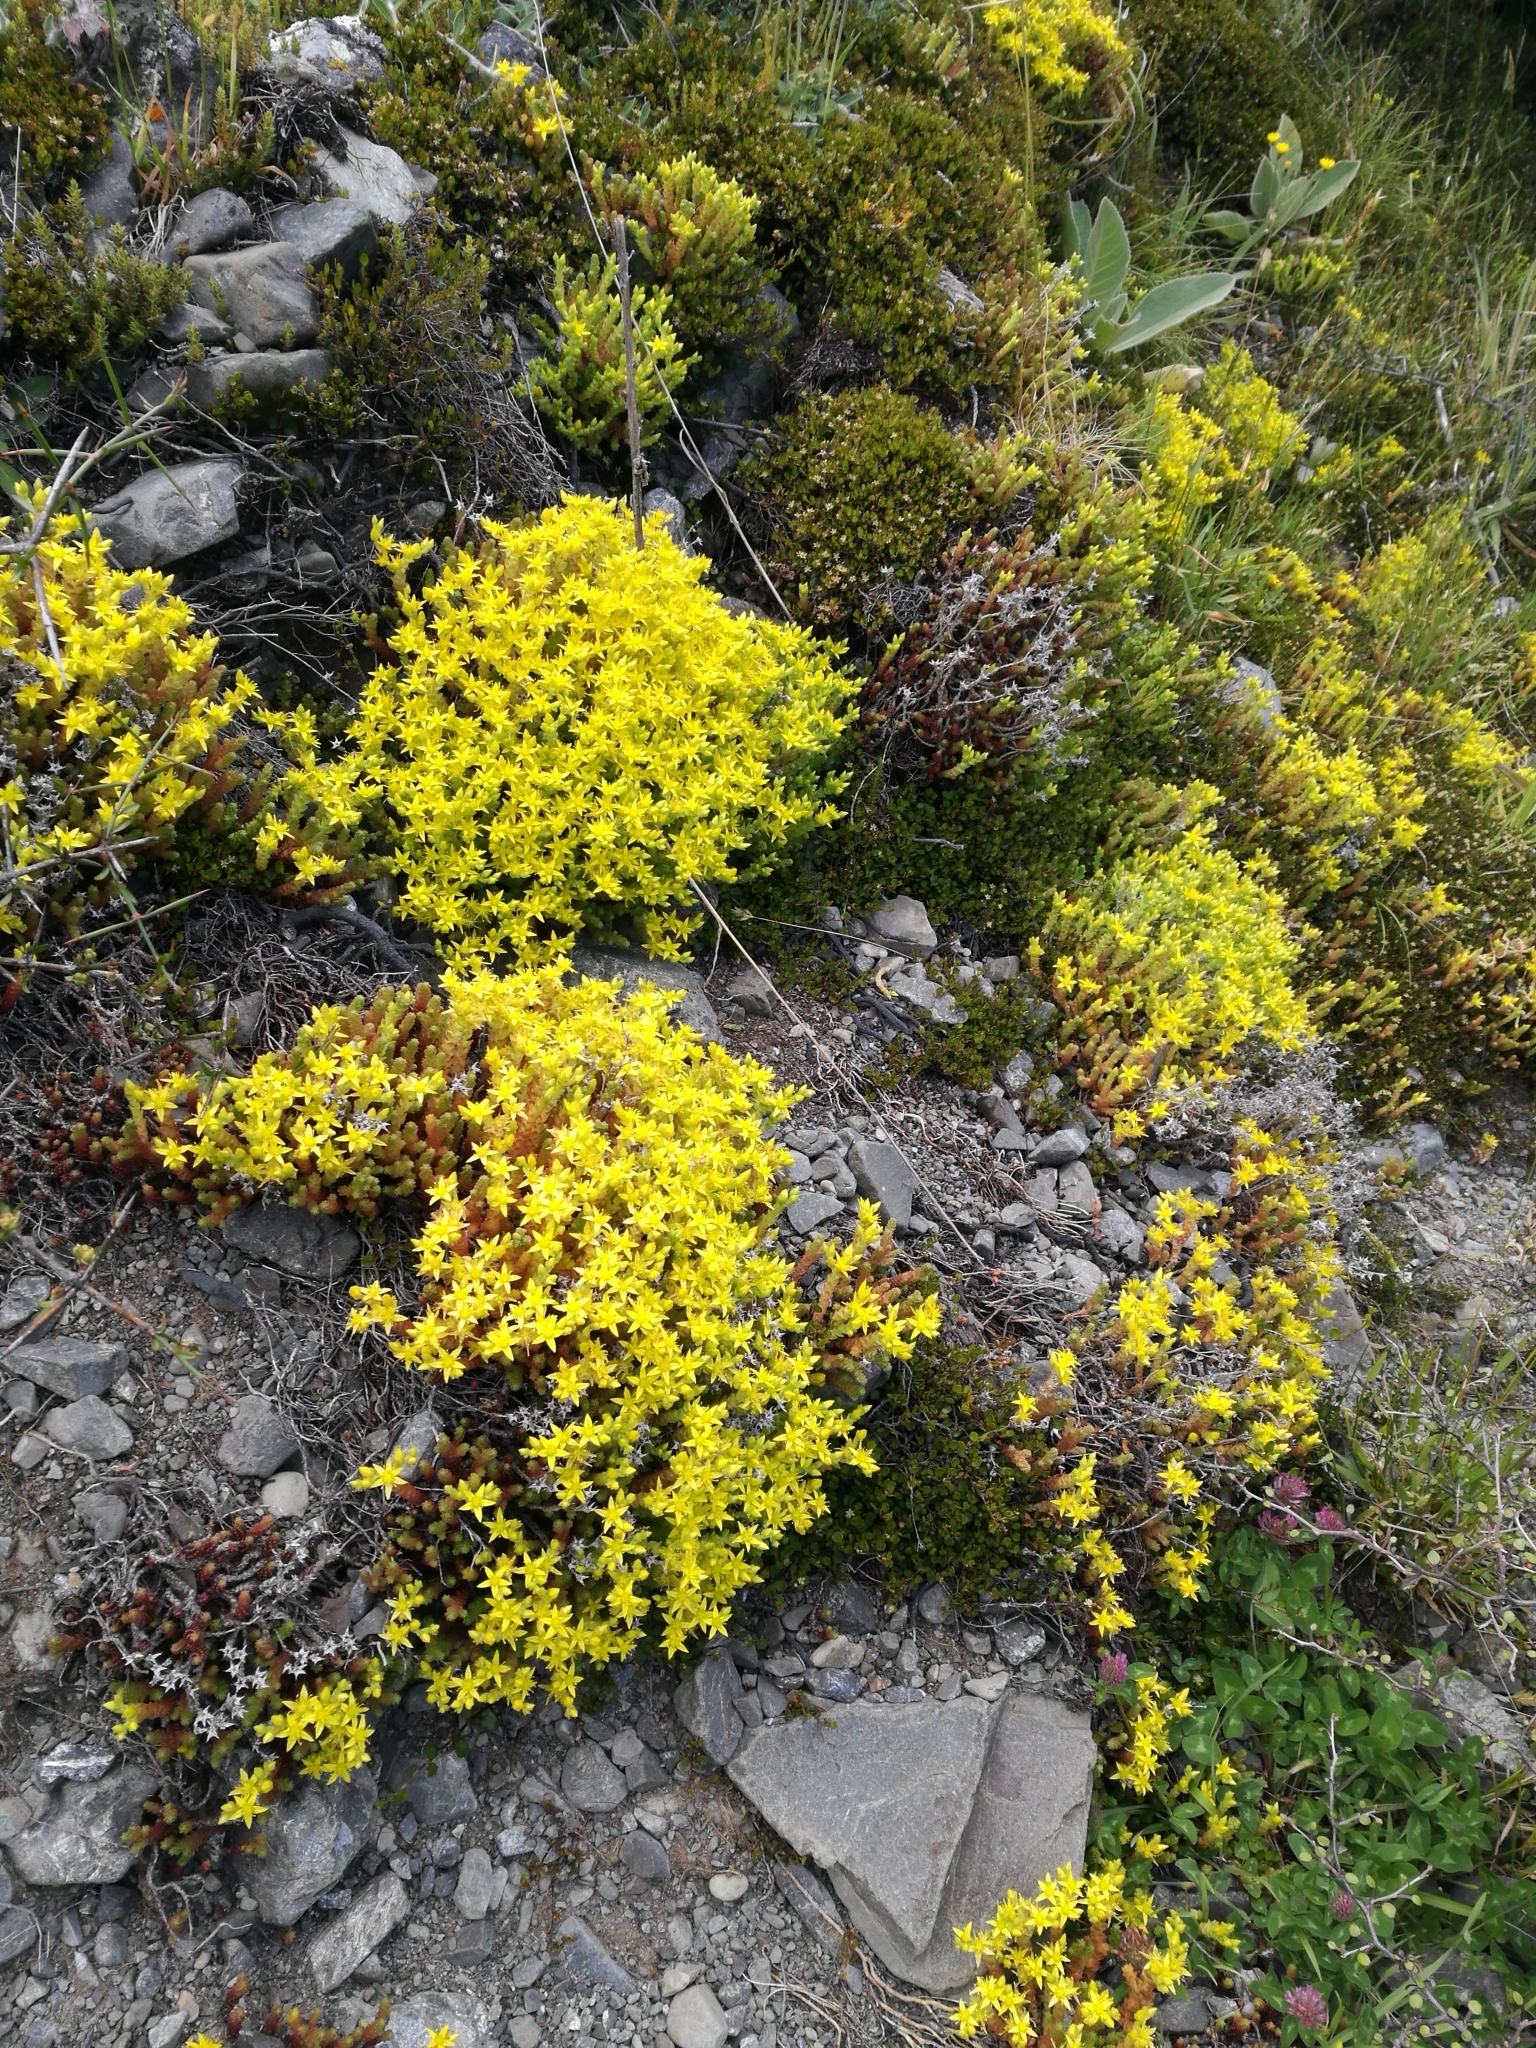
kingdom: Plantae
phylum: Tracheophyta
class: Magnoliopsida
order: Saxifragales
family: Crassulaceae
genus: Sedum
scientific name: Sedum acre
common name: Biting stonecrop
